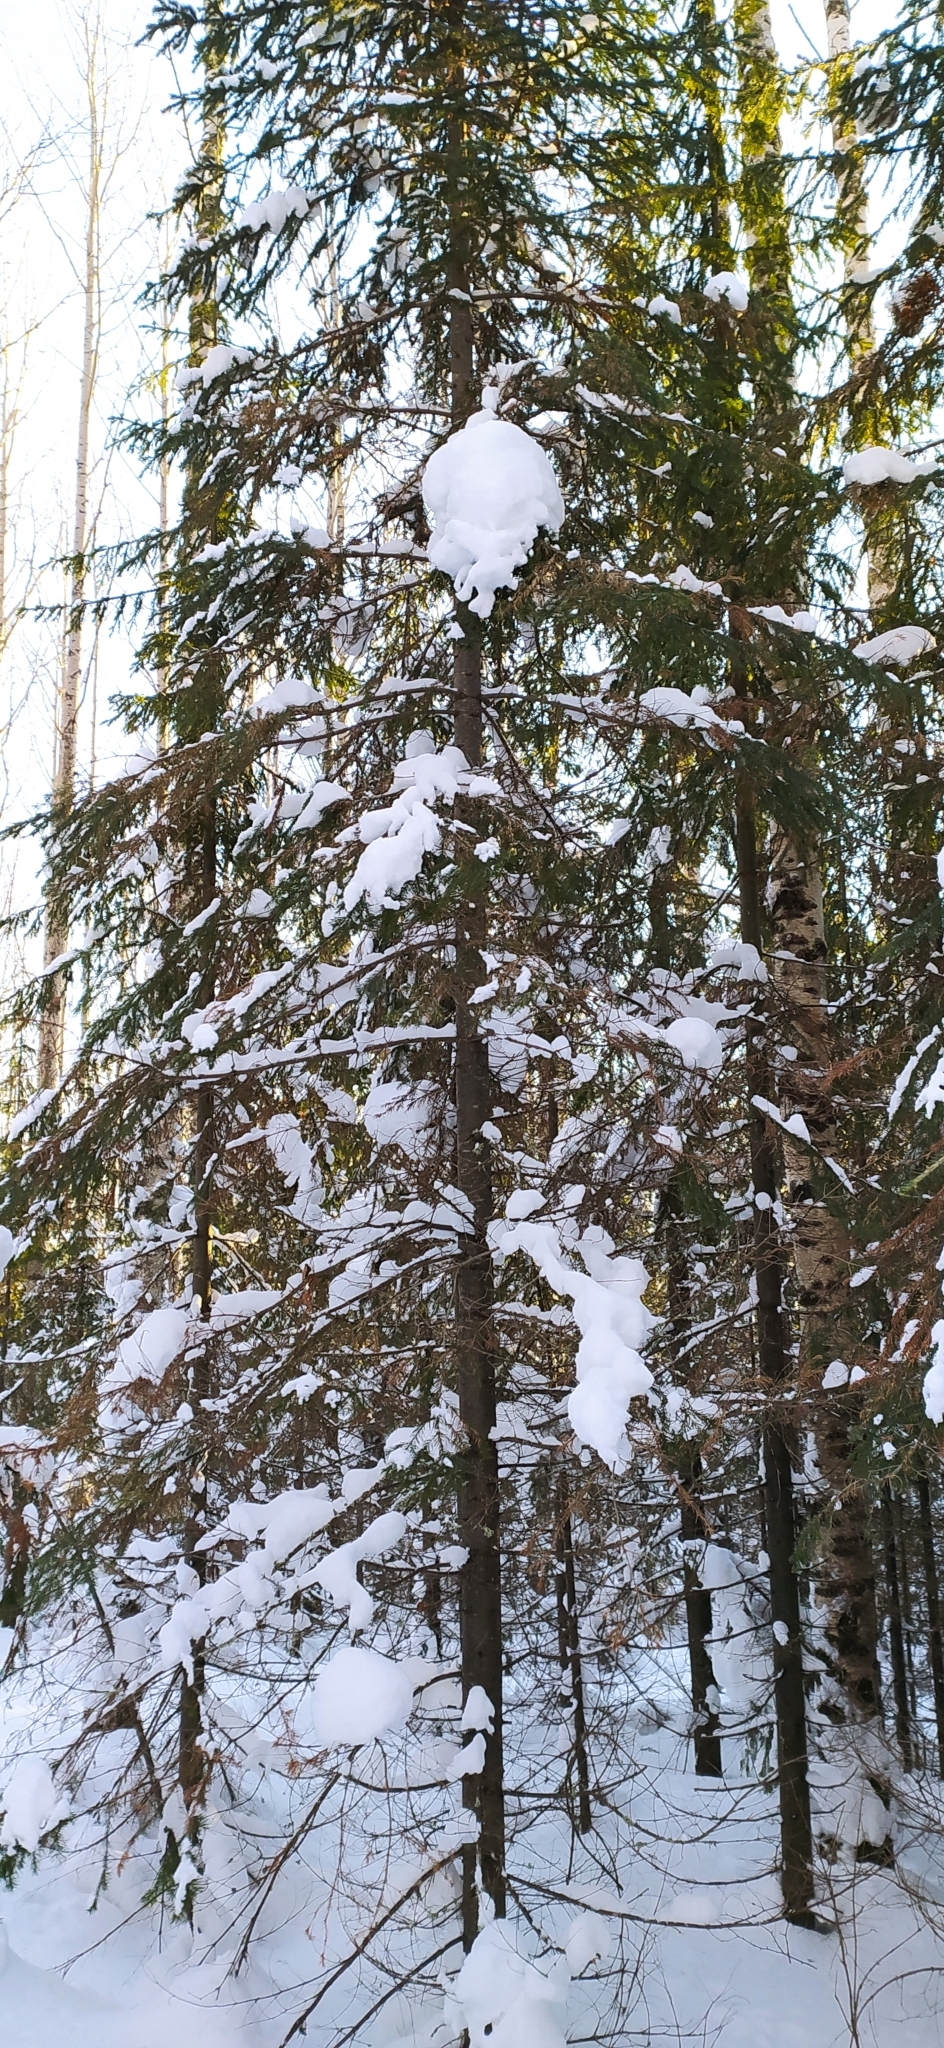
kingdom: Plantae
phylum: Tracheophyta
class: Pinopsida
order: Pinales
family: Pinaceae
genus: Abies
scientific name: Abies sibirica
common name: Siberian fir
